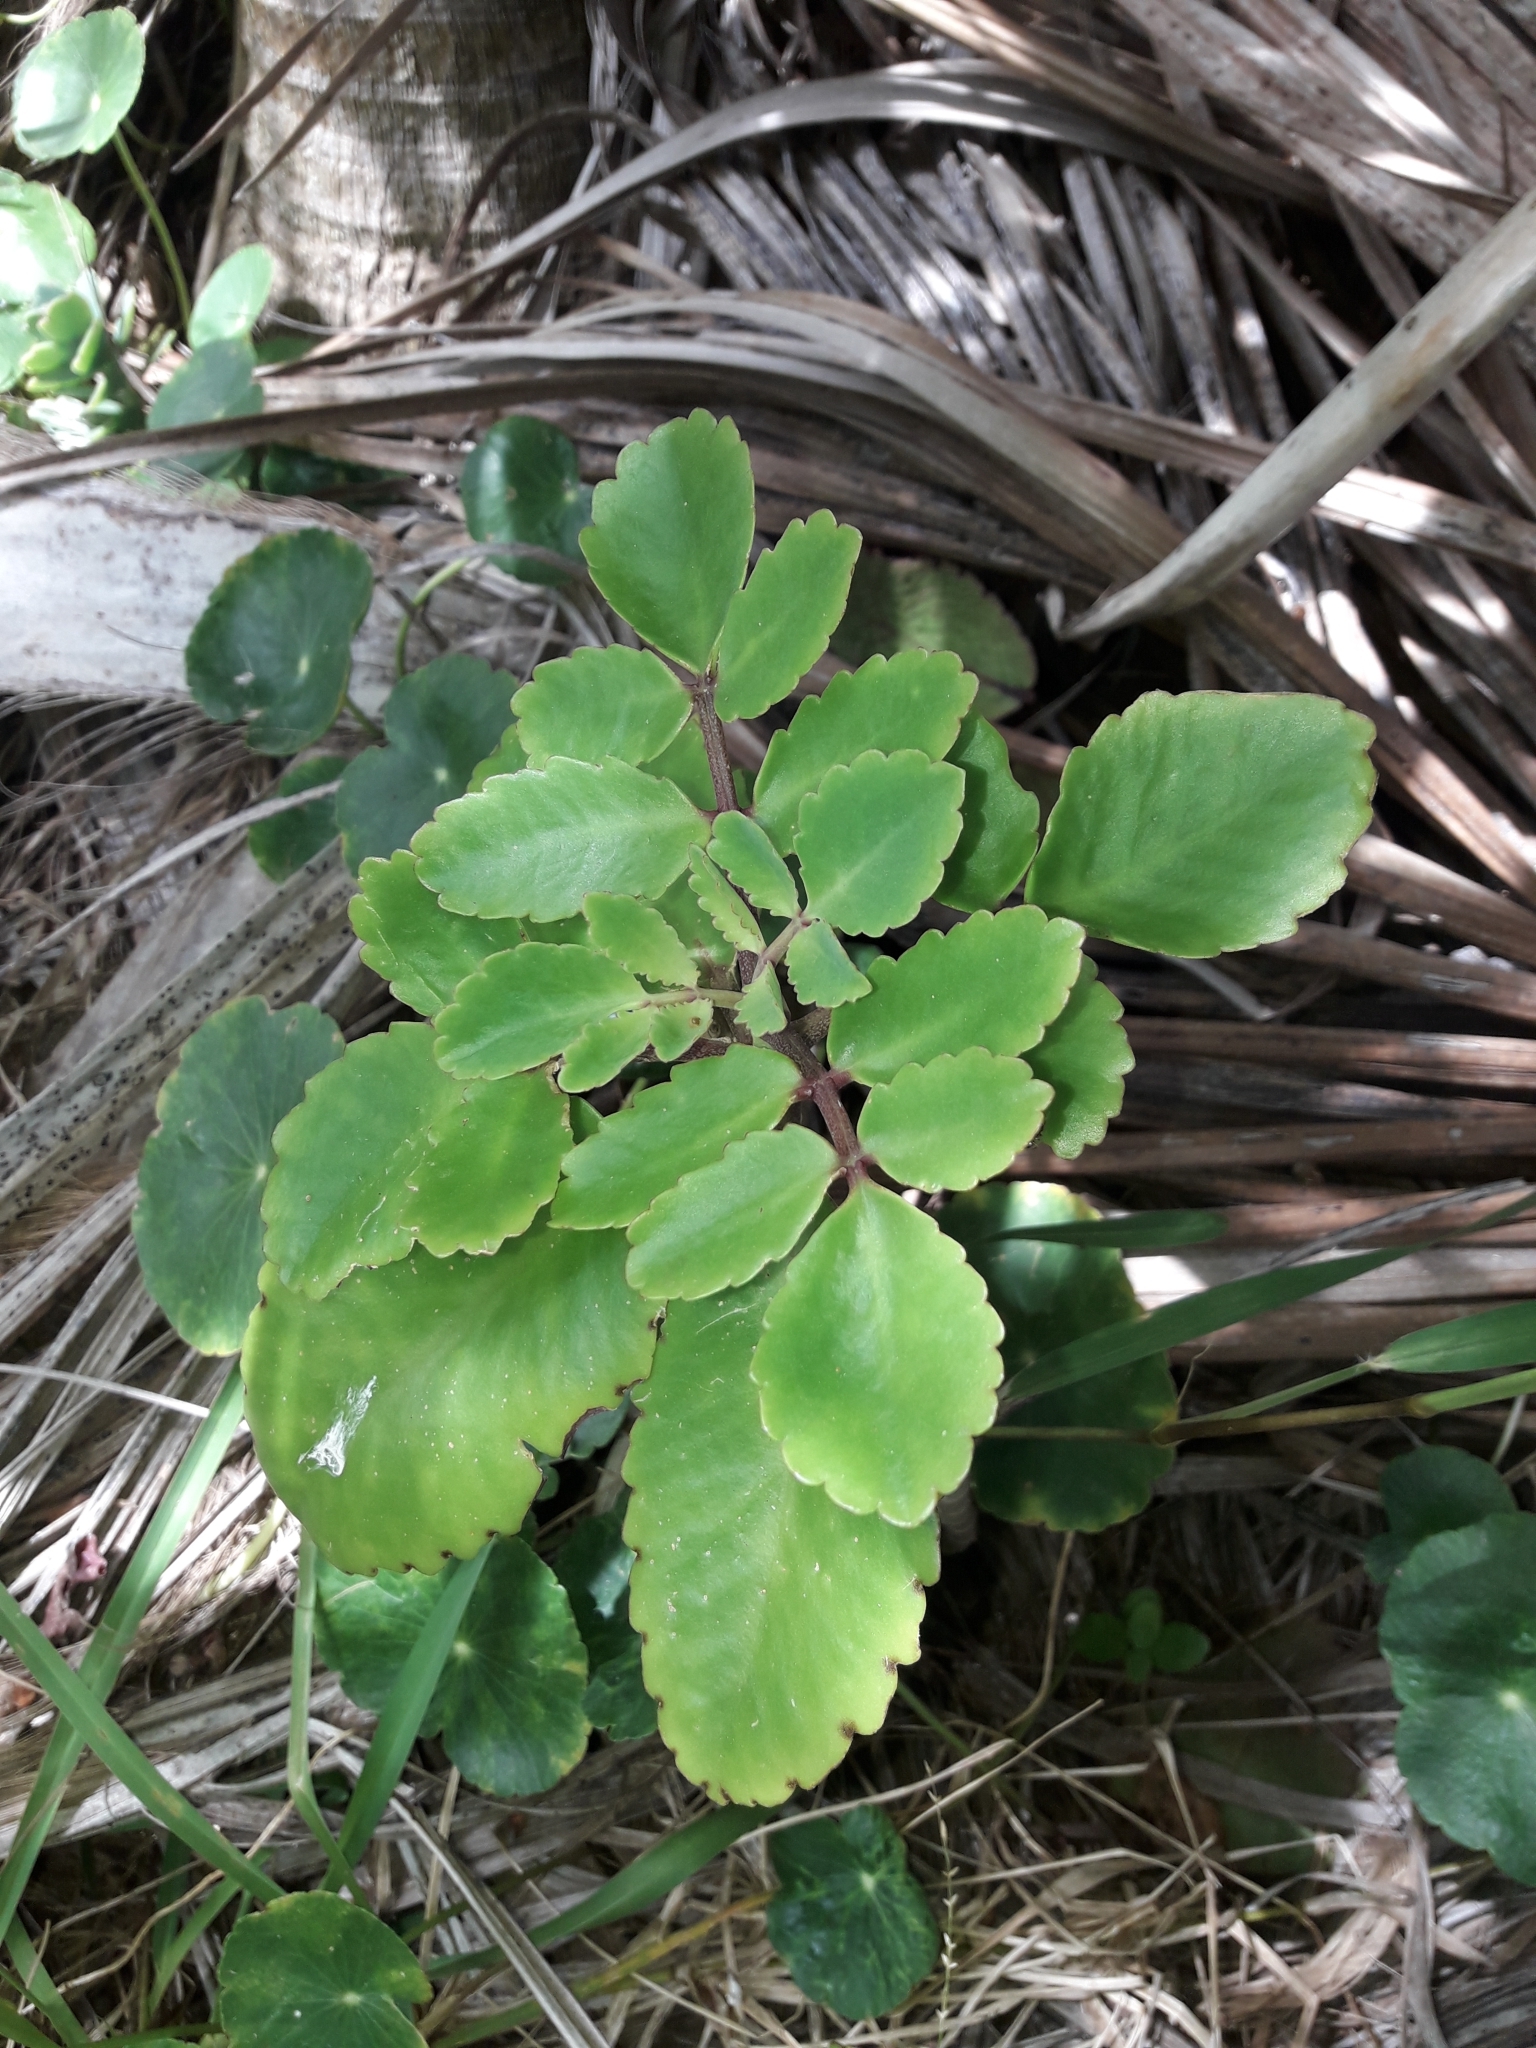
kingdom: Plantae
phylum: Tracheophyta
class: Magnoliopsida
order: Saxifragales
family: Crassulaceae
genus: Kalanchoe
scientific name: Kalanchoe pinnata
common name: Cathedral bells
